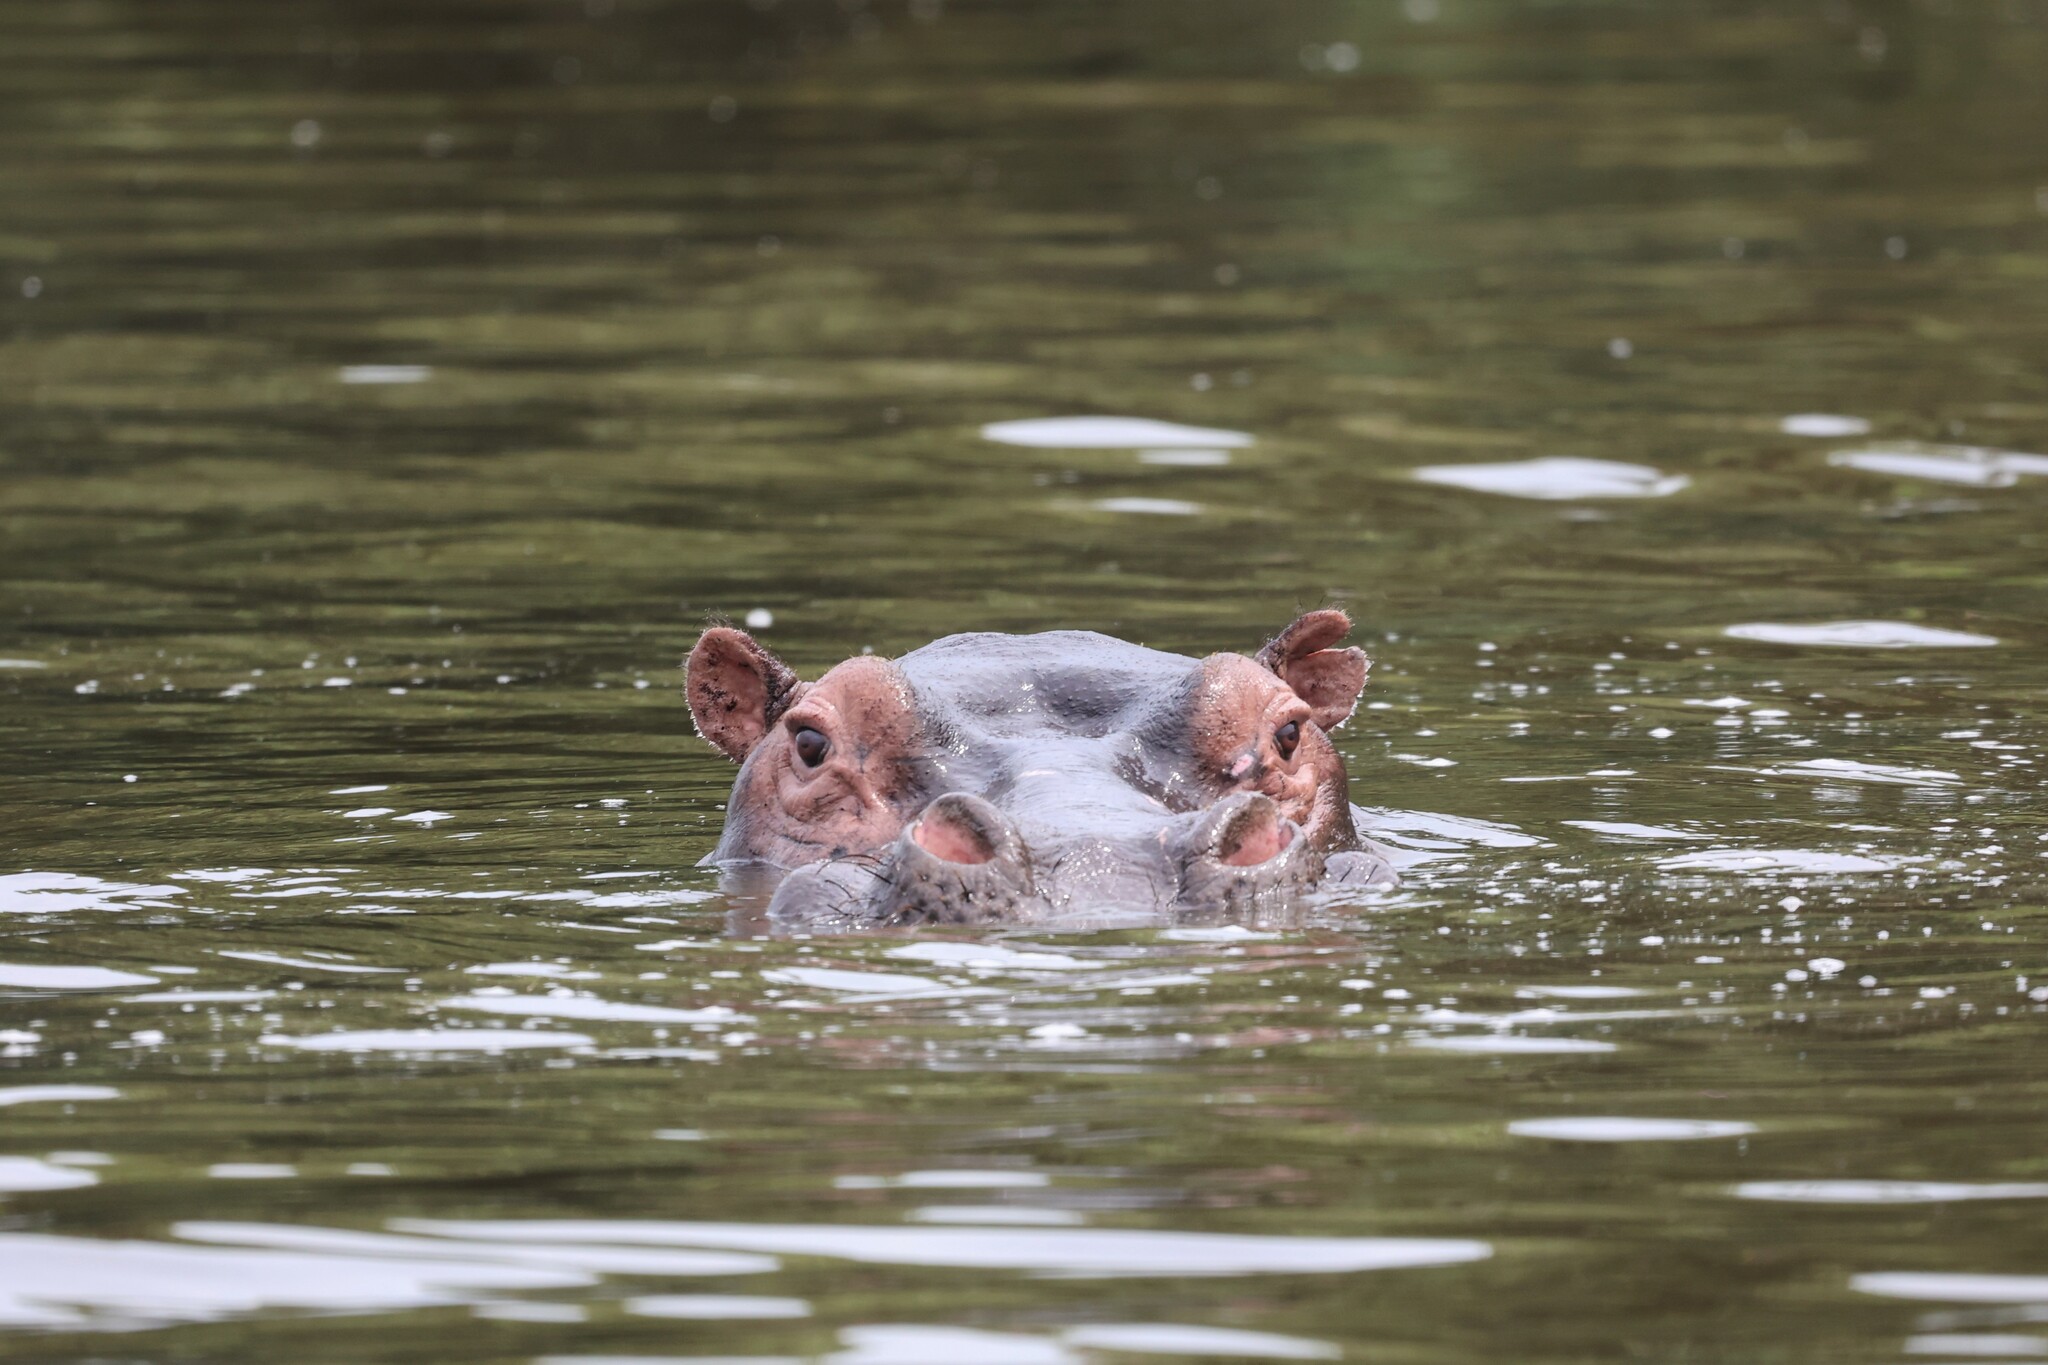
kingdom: Animalia
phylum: Chordata
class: Mammalia
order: Artiodactyla
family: Hippopotamidae
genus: Hippopotamus
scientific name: Hippopotamus amphibius
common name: Common hippopotamus
